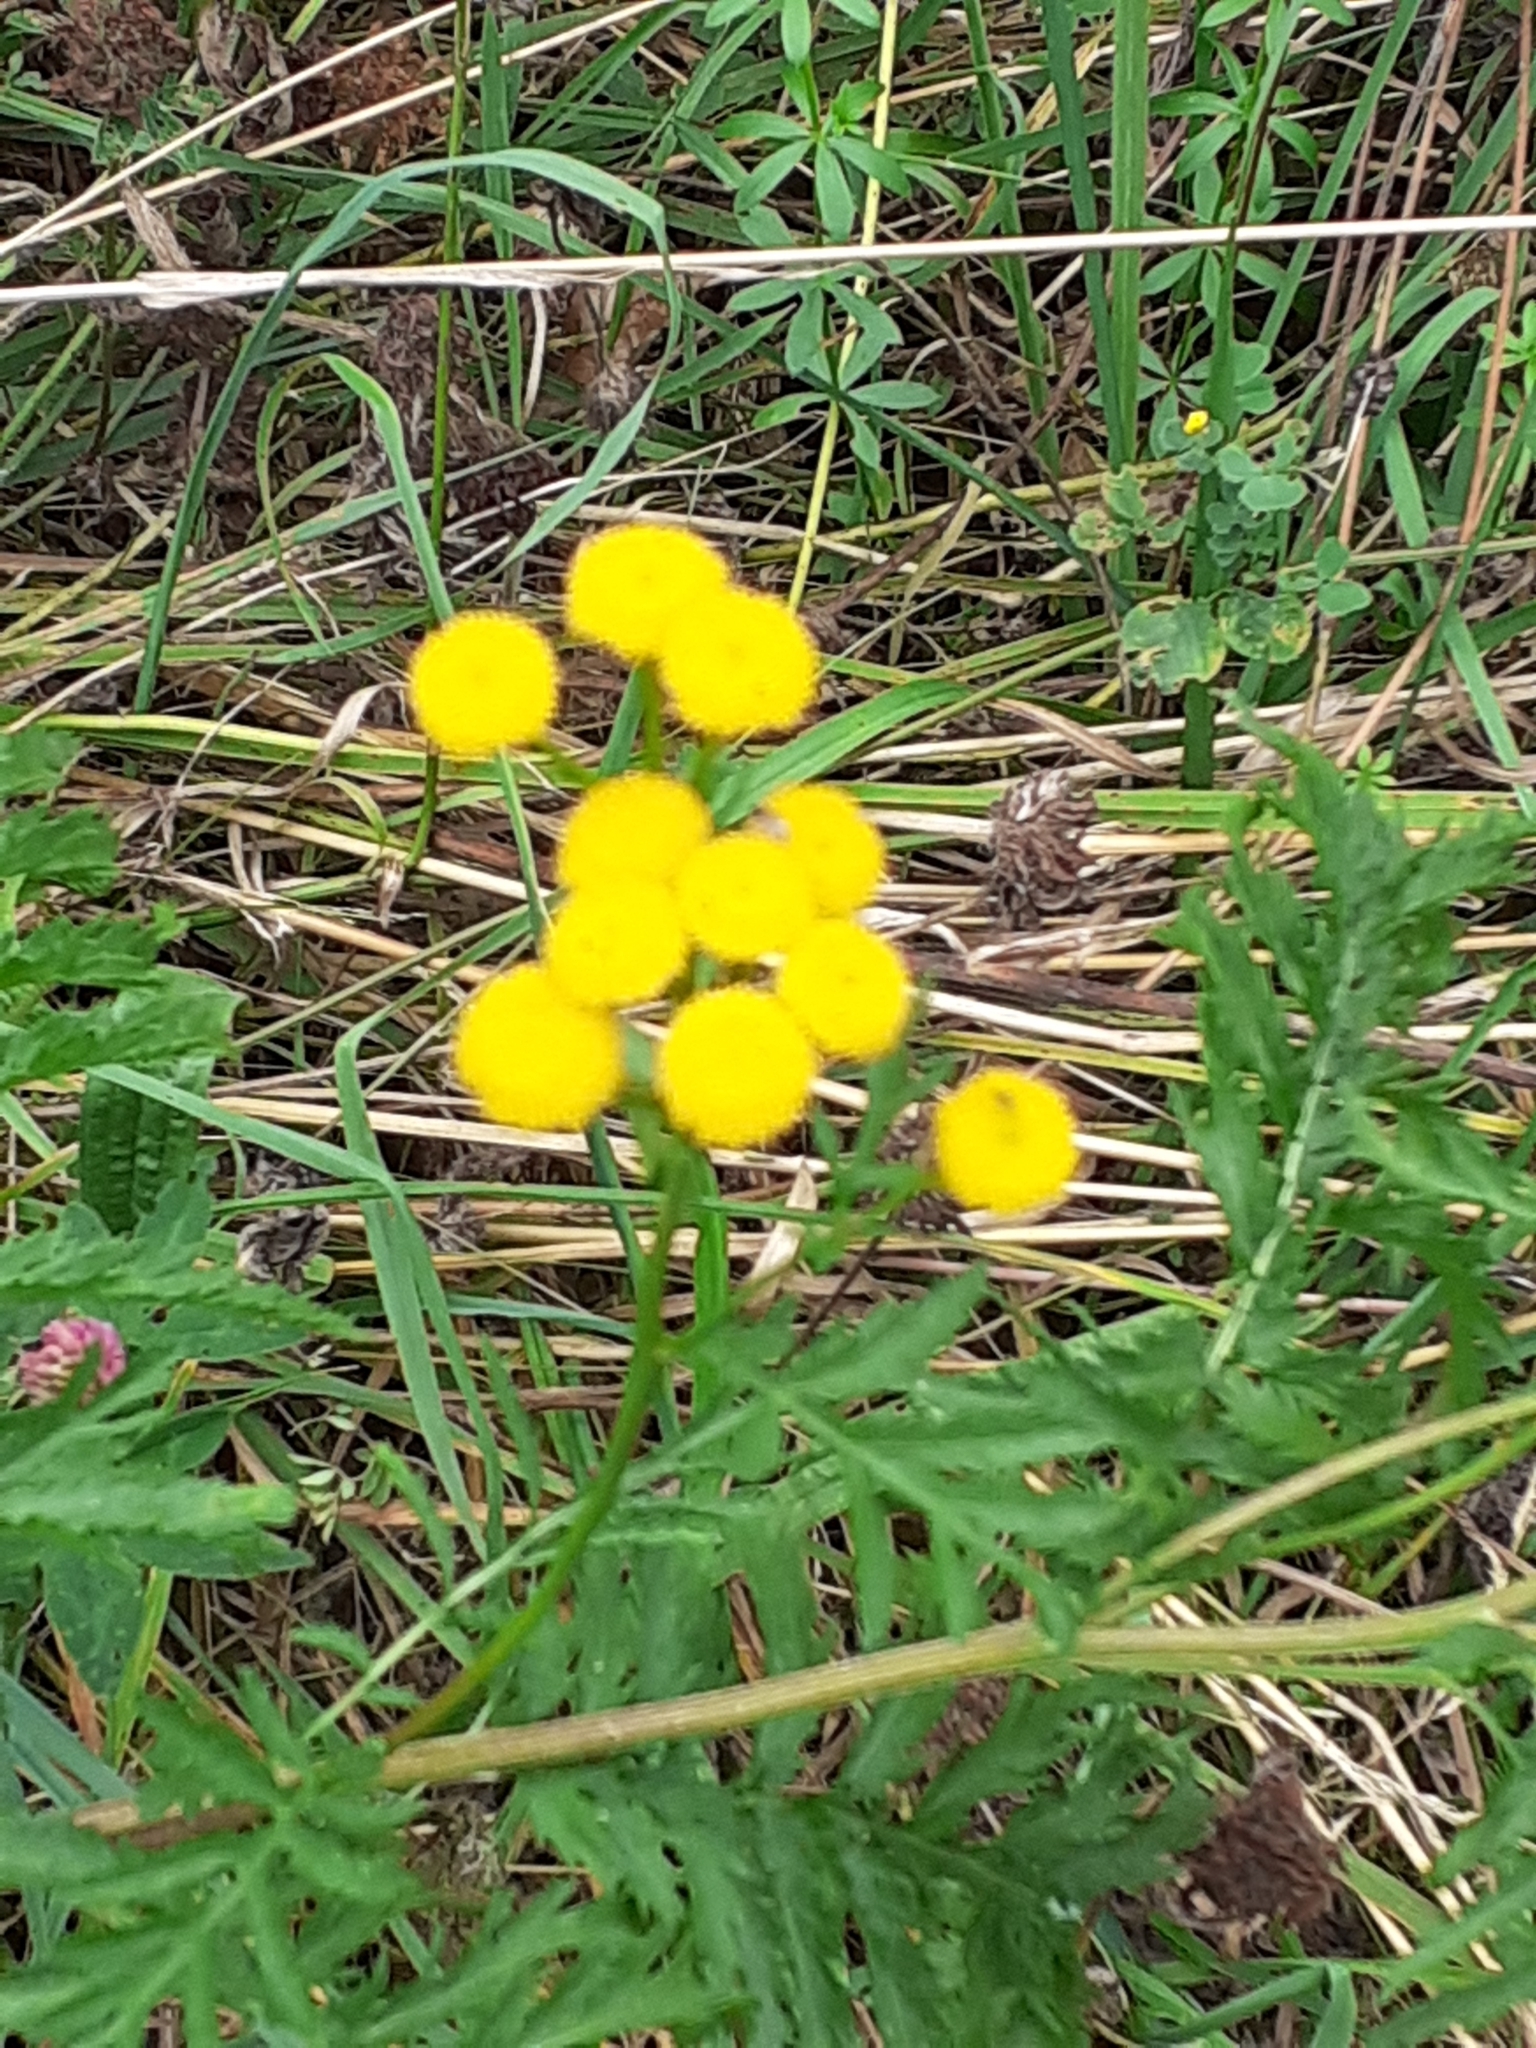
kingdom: Plantae
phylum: Tracheophyta
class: Magnoliopsida
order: Asterales
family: Asteraceae
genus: Tanacetum
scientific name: Tanacetum vulgare
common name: Common tansy
